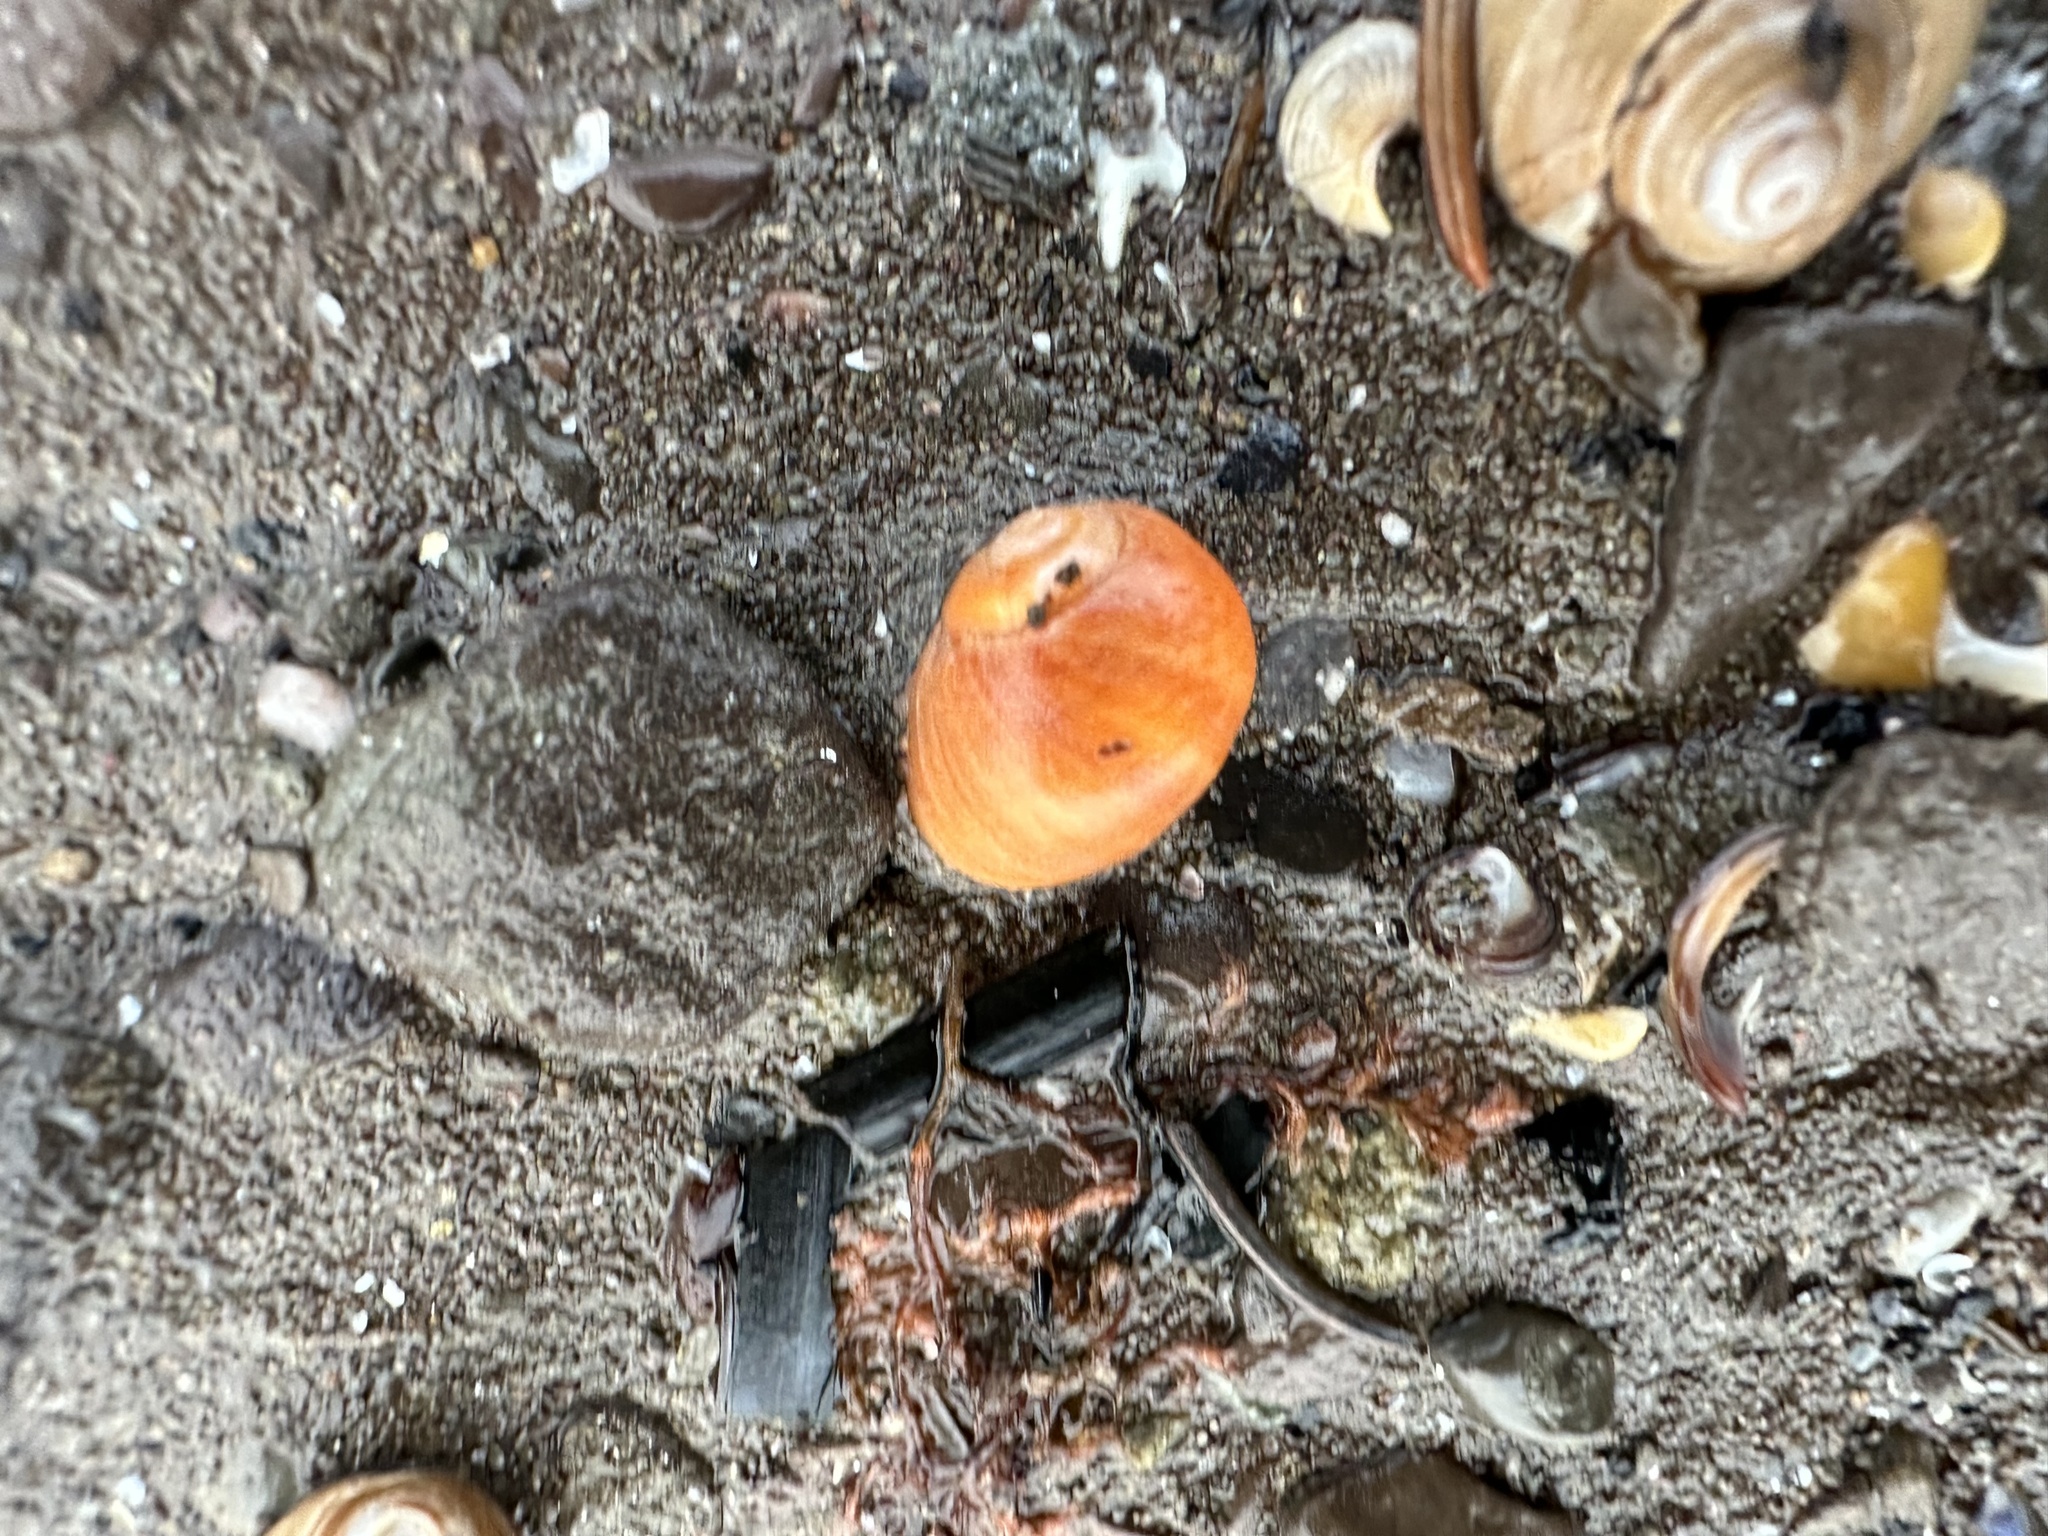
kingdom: Animalia
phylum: Mollusca
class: Gastropoda
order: Littorinimorpha
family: Littorinidae
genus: Littorina
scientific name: Littorina obtusata
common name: Flat periwinkle
